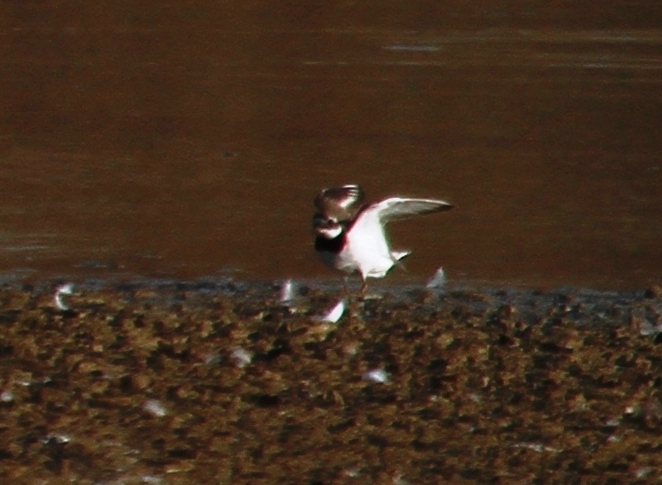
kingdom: Animalia
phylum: Chordata
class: Aves
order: Charadriiformes
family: Charadriidae
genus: Charadrius
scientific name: Charadrius hiaticula
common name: Common ringed plover
